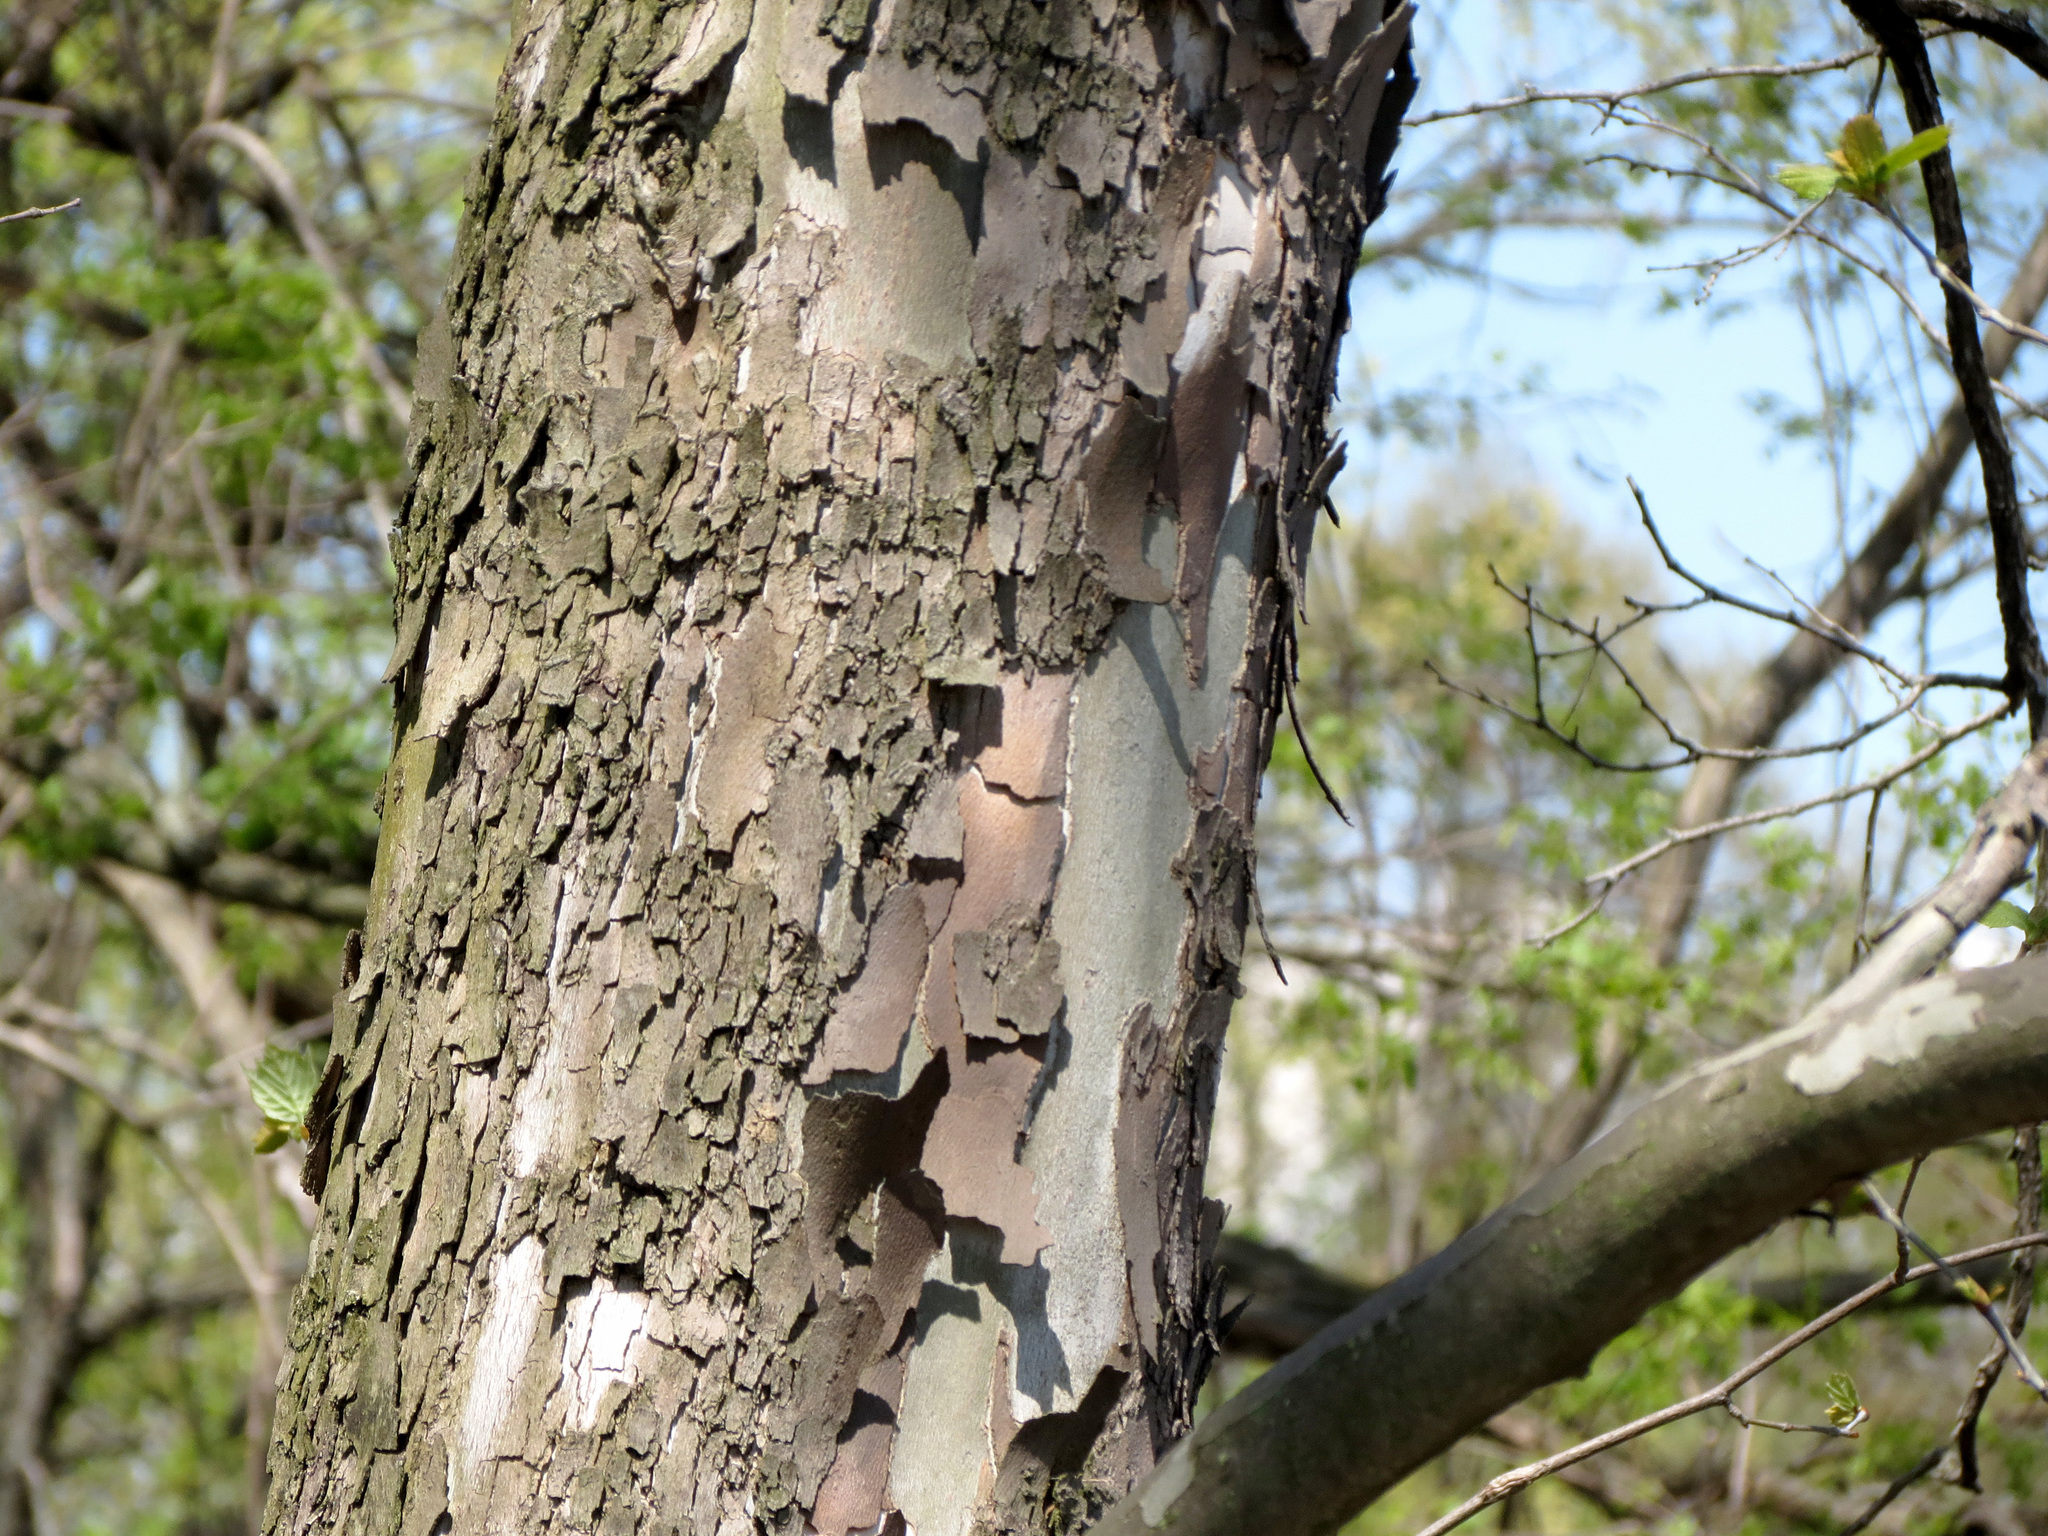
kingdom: Plantae
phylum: Tracheophyta
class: Magnoliopsida
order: Proteales
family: Platanaceae
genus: Platanus
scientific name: Platanus occidentalis
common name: American sycamore
